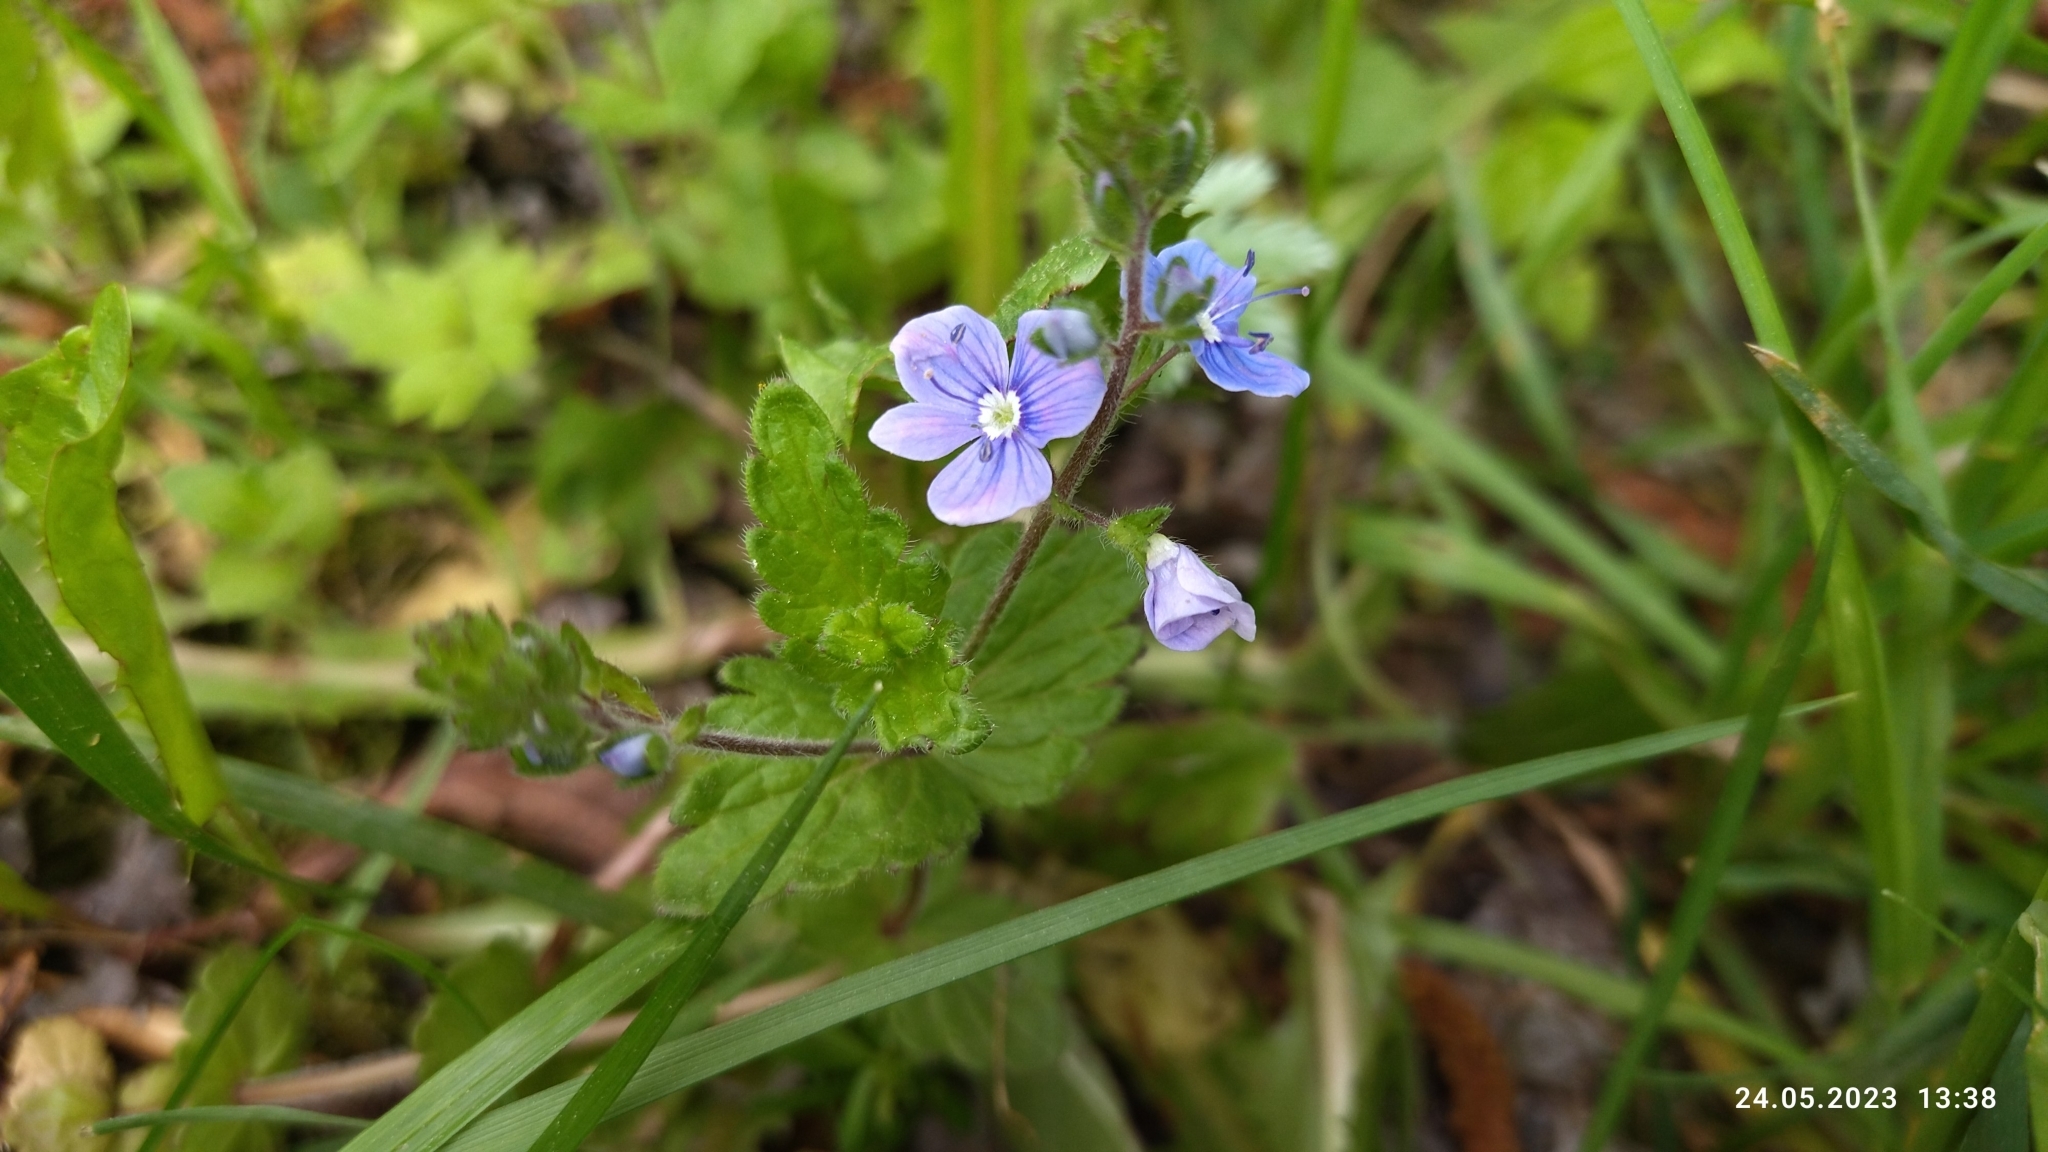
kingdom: Plantae
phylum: Tracheophyta
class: Magnoliopsida
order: Lamiales
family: Plantaginaceae
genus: Veronica
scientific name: Veronica chamaedrys
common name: Germander speedwell
